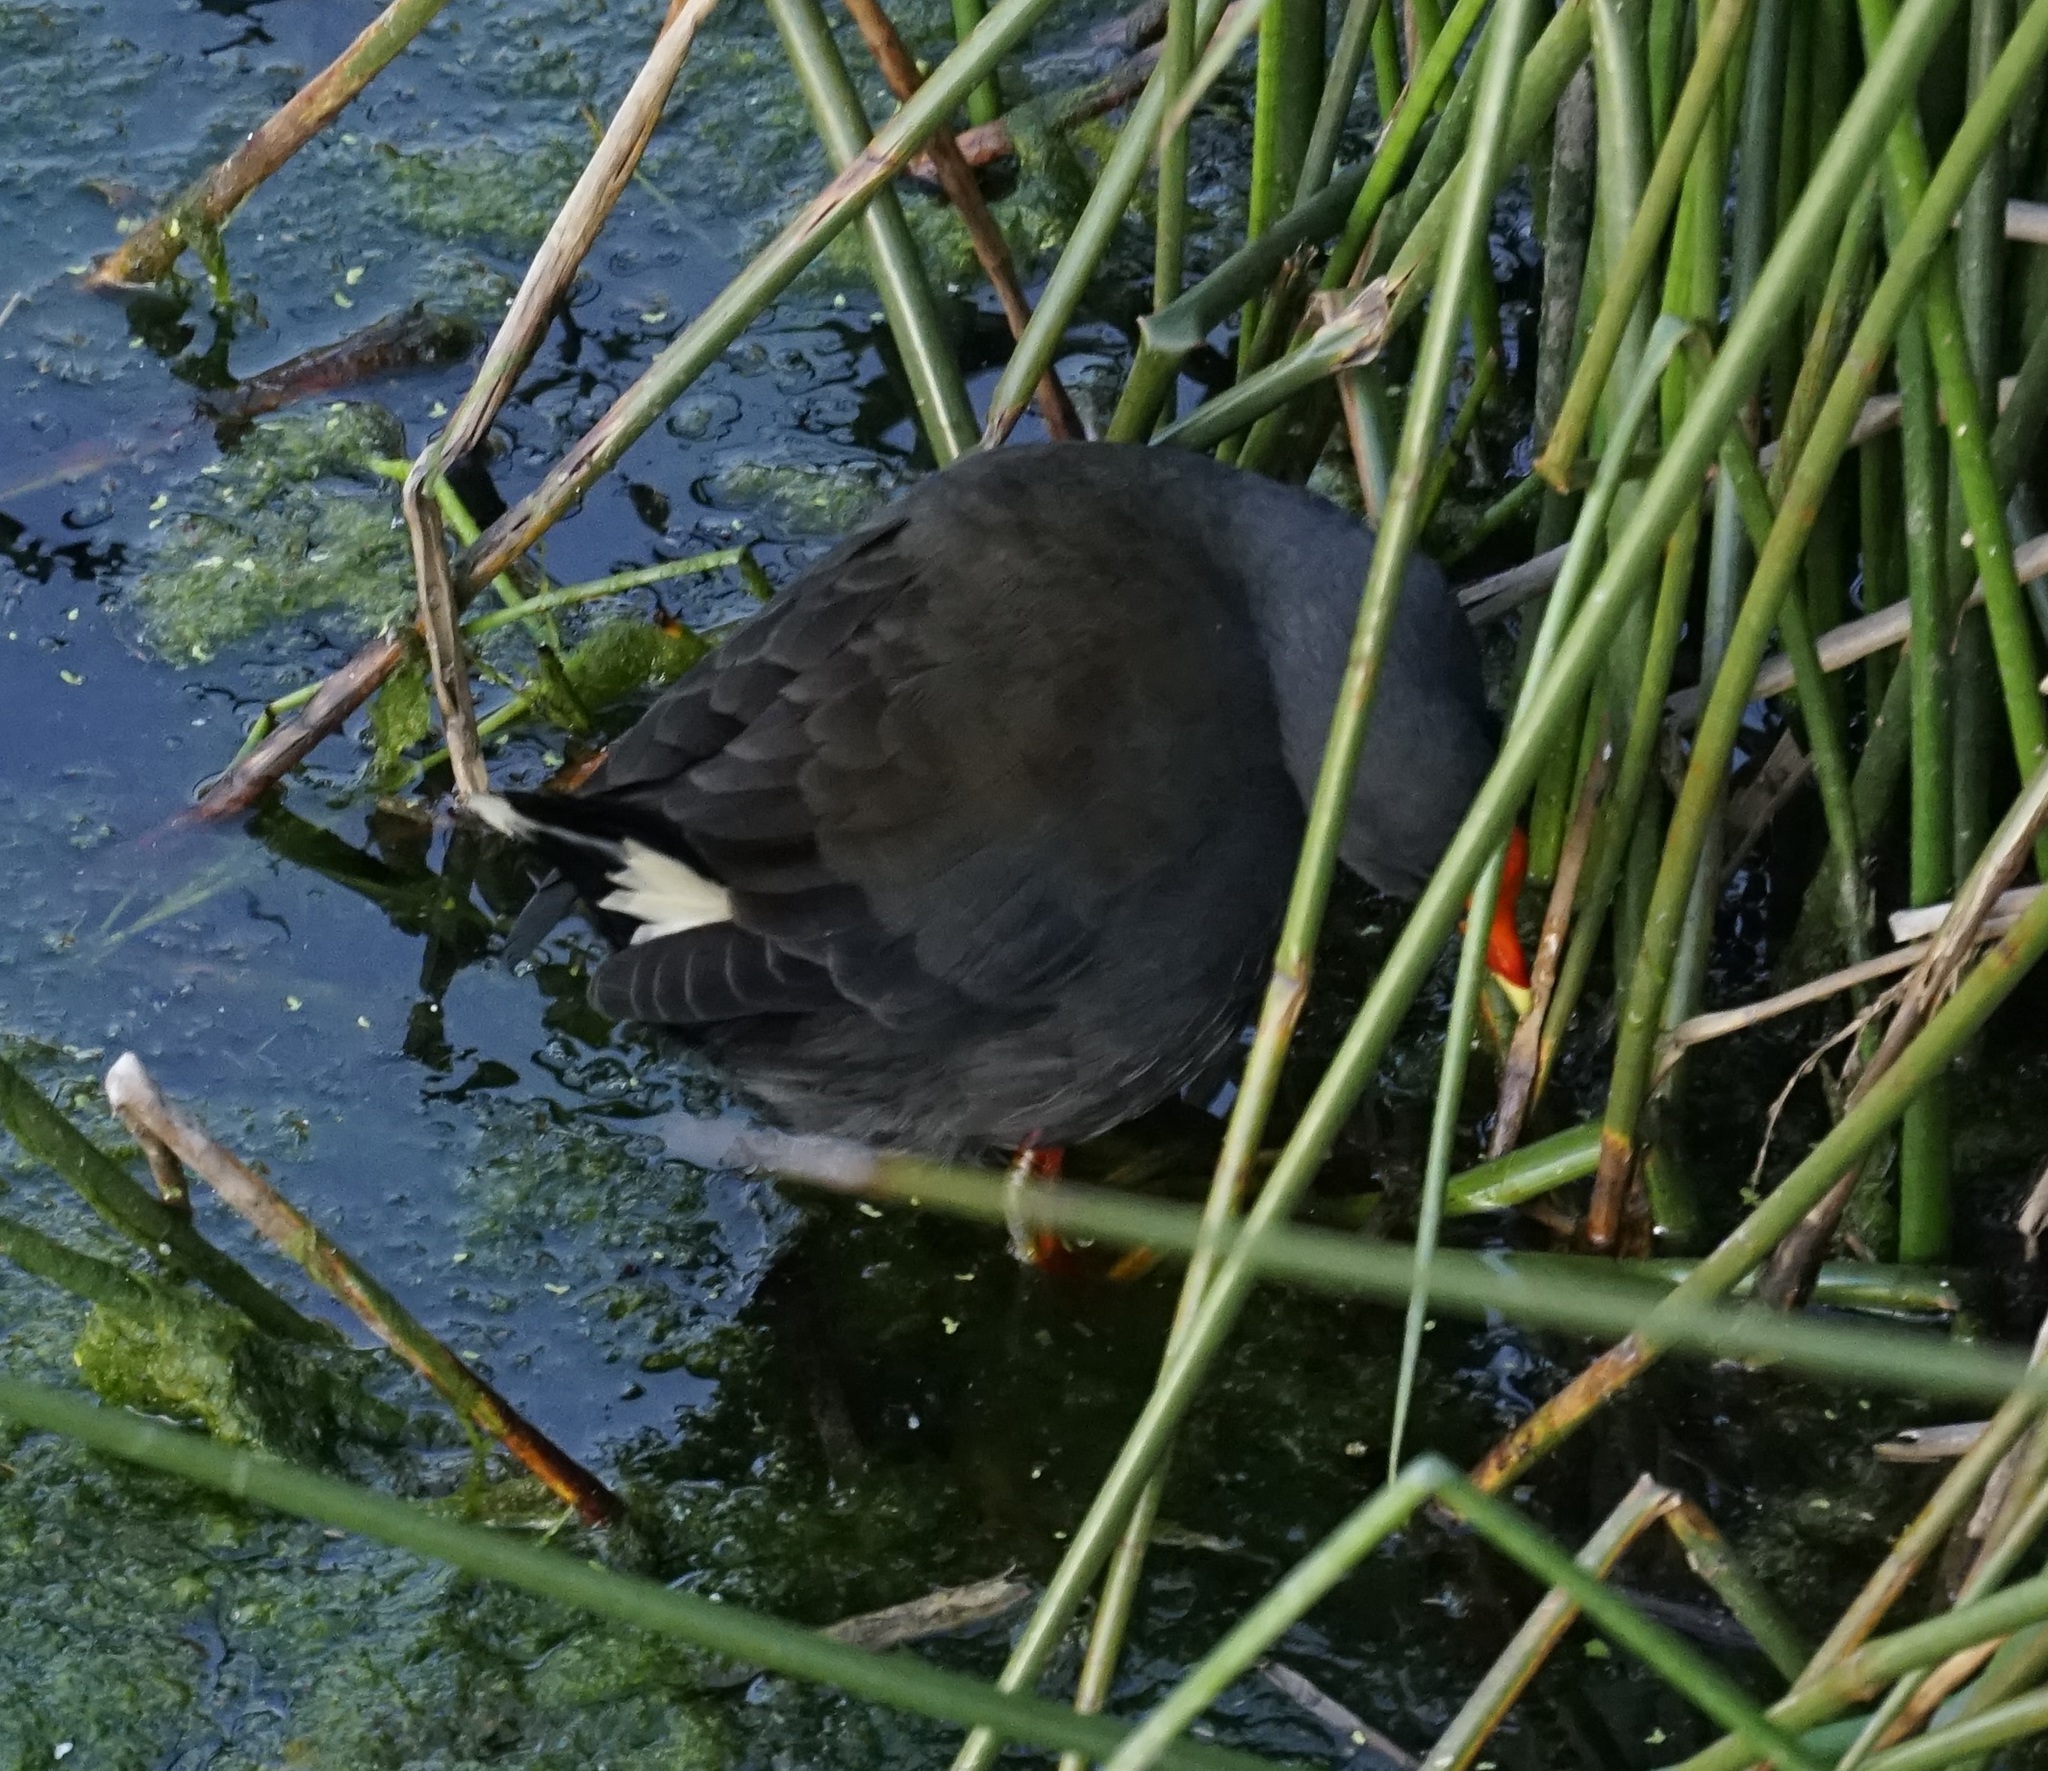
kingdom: Animalia
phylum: Chordata
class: Aves
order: Gruiformes
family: Rallidae
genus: Gallinula
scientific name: Gallinula tenebrosa
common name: Dusky moorhen
